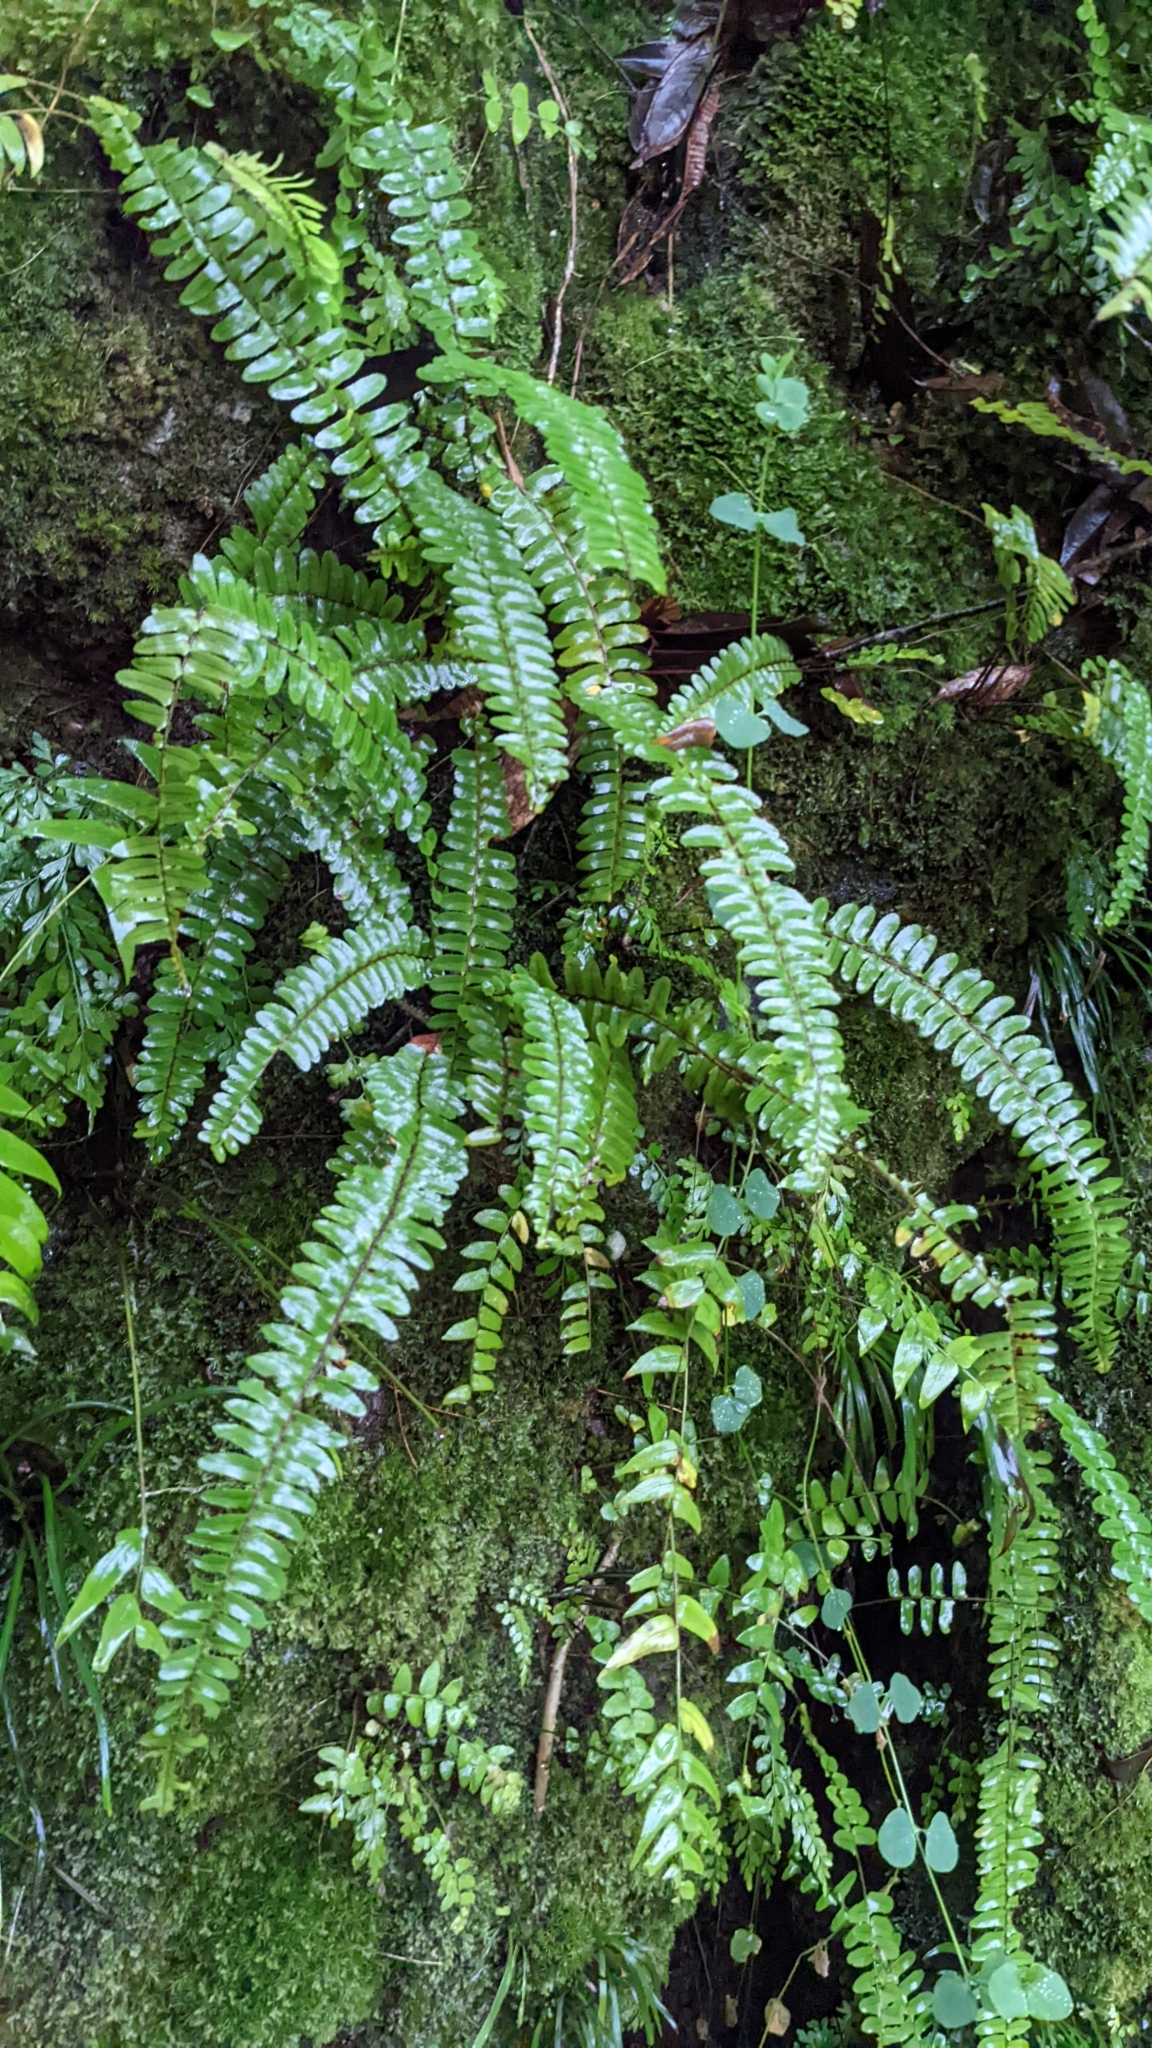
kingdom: Plantae
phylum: Tracheophyta
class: Polypodiopsida
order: Polypodiales
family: Nephrolepidaceae
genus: Nephrolepis
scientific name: Nephrolepis cordifolia
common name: Narrow swordfern
